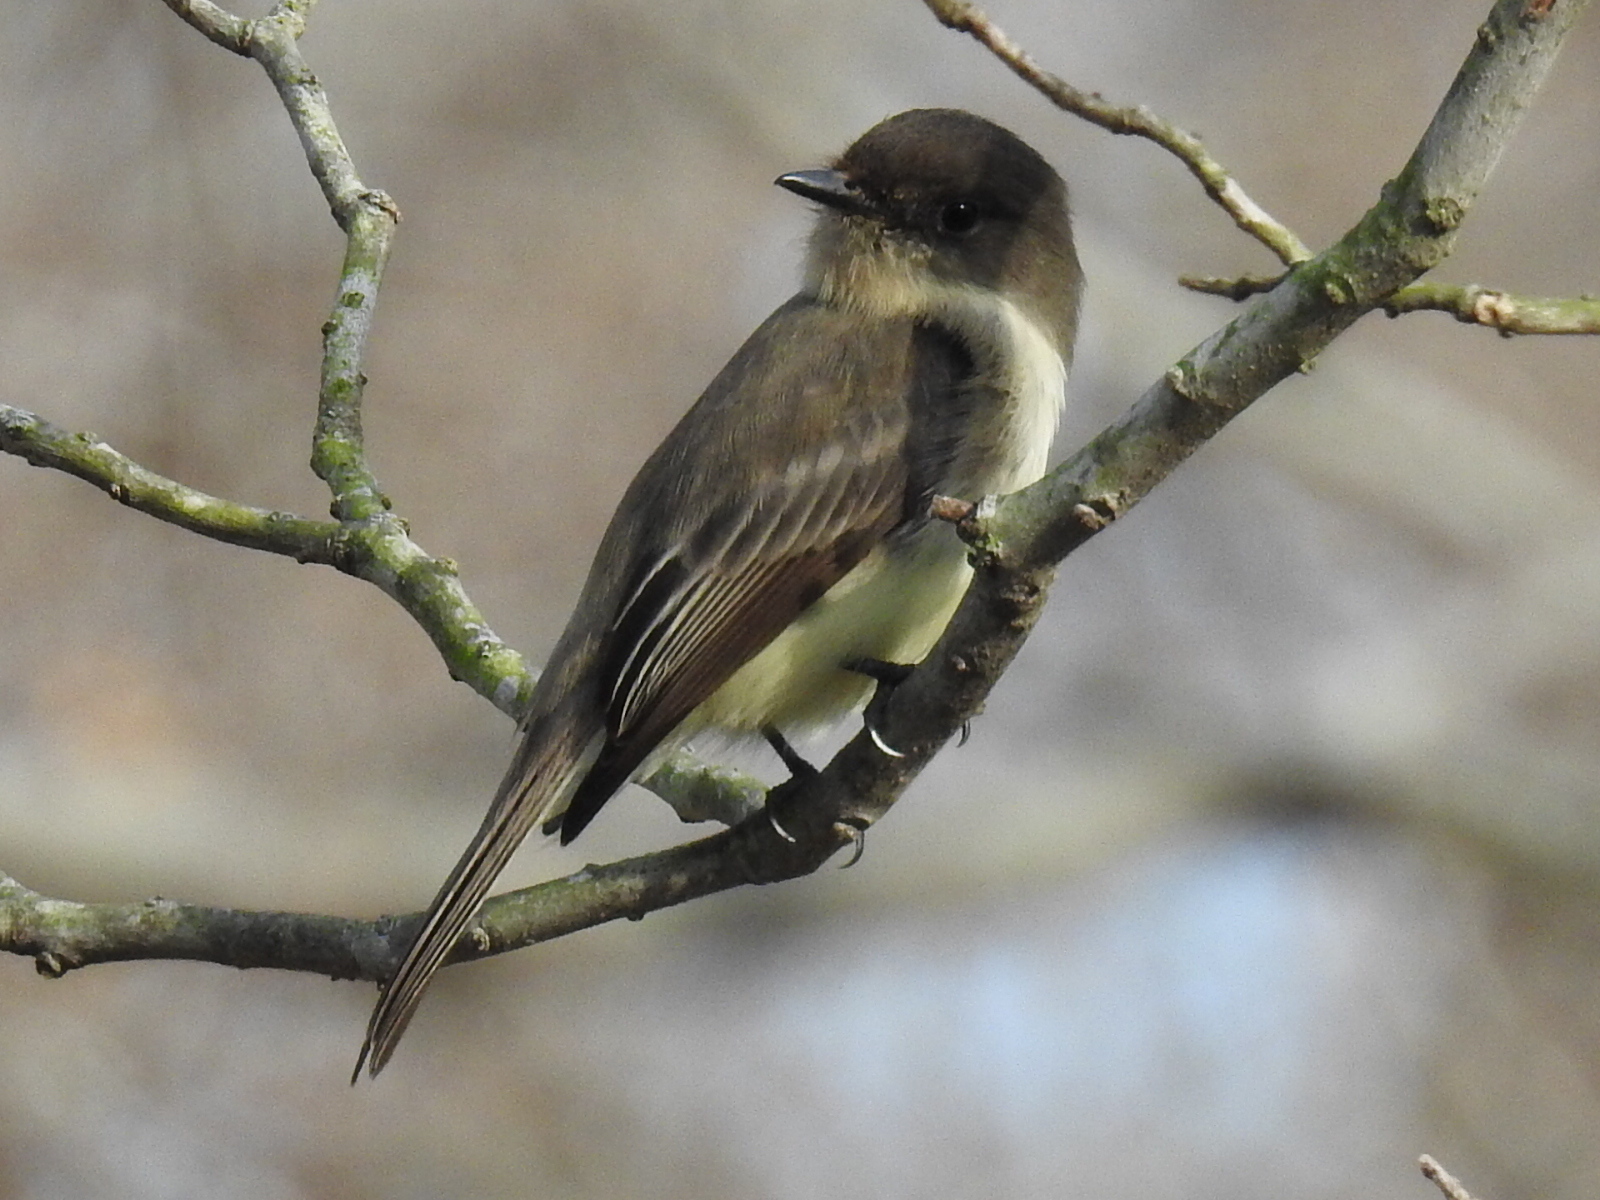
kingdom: Animalia
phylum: Chordata
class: Aves
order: Passeriformes
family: Tyrannidae
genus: Sayornis
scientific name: Sayornis phoebe
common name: Eastern phoebe
